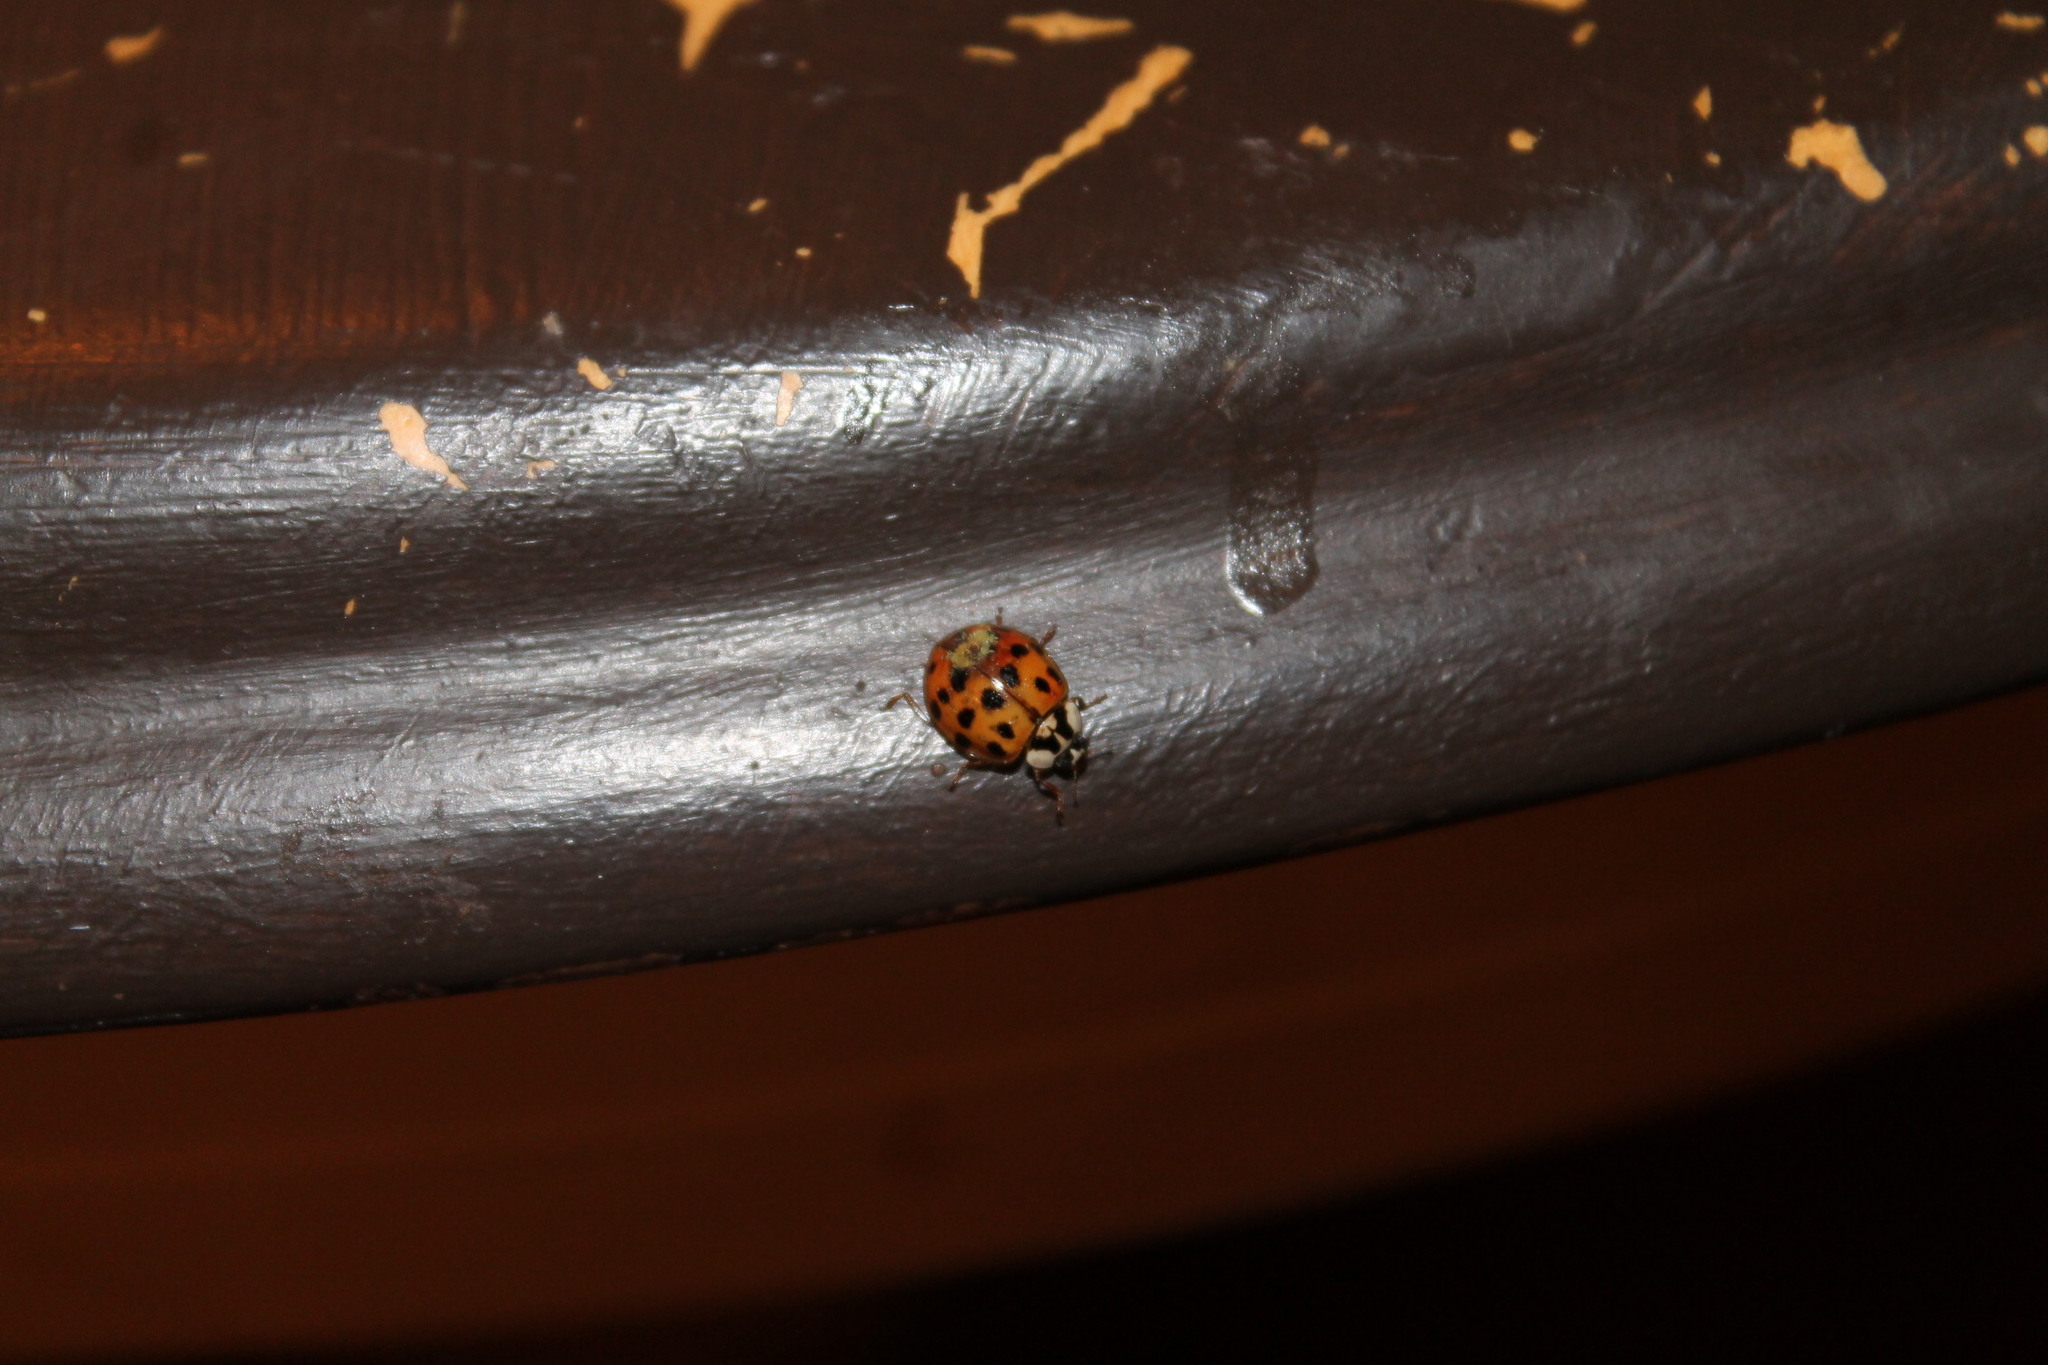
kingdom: Fungi
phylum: Ascomycota
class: Laboulbeniomycetes
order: Laboulbeniales
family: Laboulbeniaceae
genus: Hesperomyces
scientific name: Hesperomyces harmoniae
